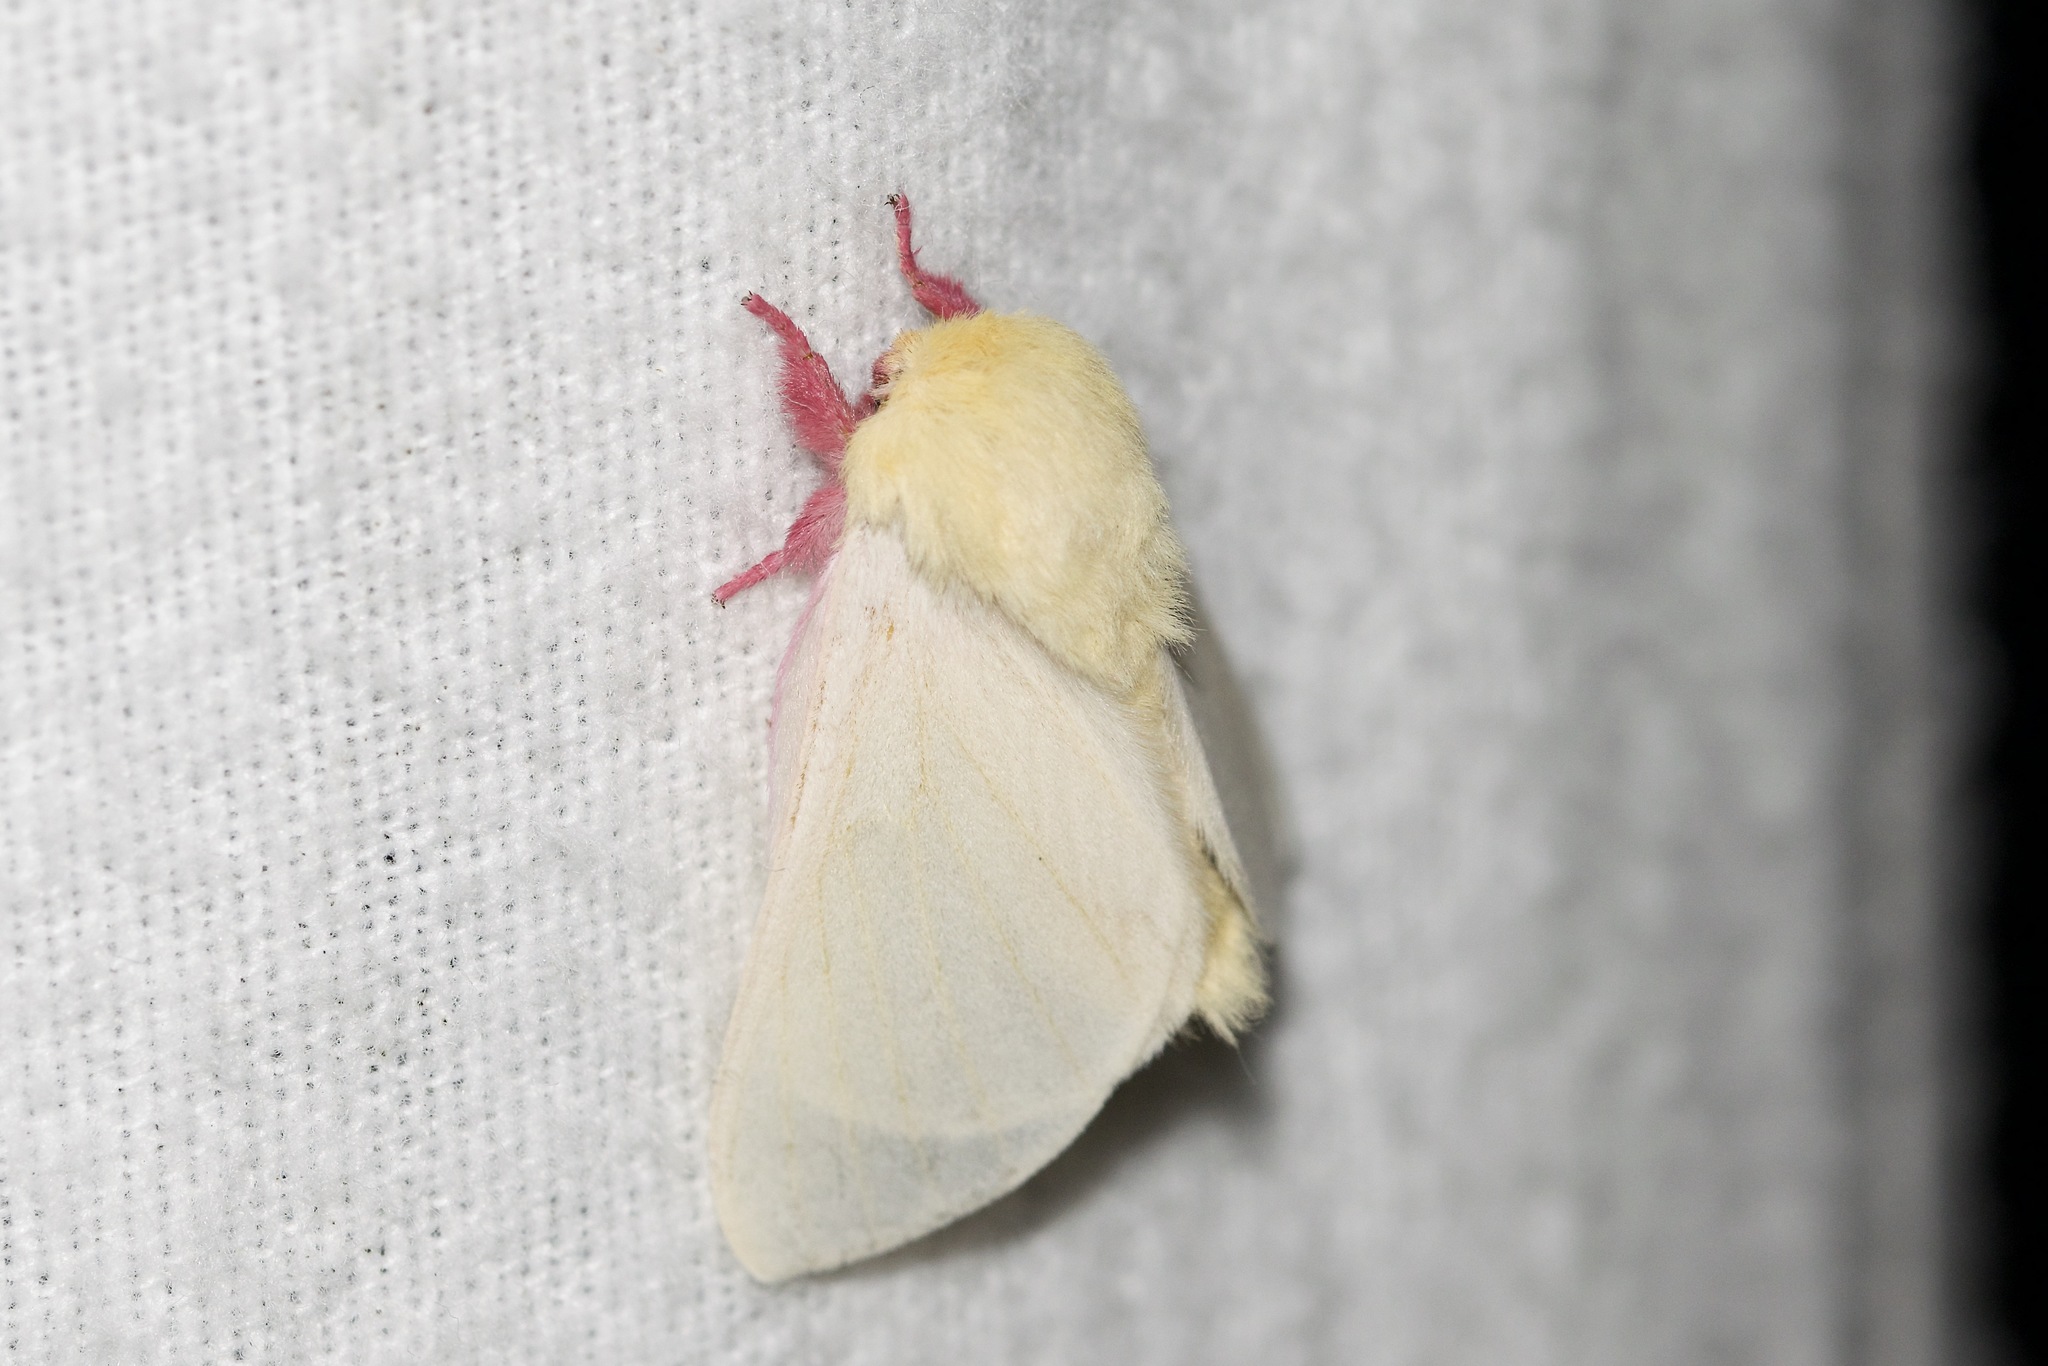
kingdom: Animalia
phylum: Arthropoda
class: Insecta
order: Lepidoptera
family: Saturniidae
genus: Dryocampa
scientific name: Dryocampa rubicunda
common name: Rosy maple moth
